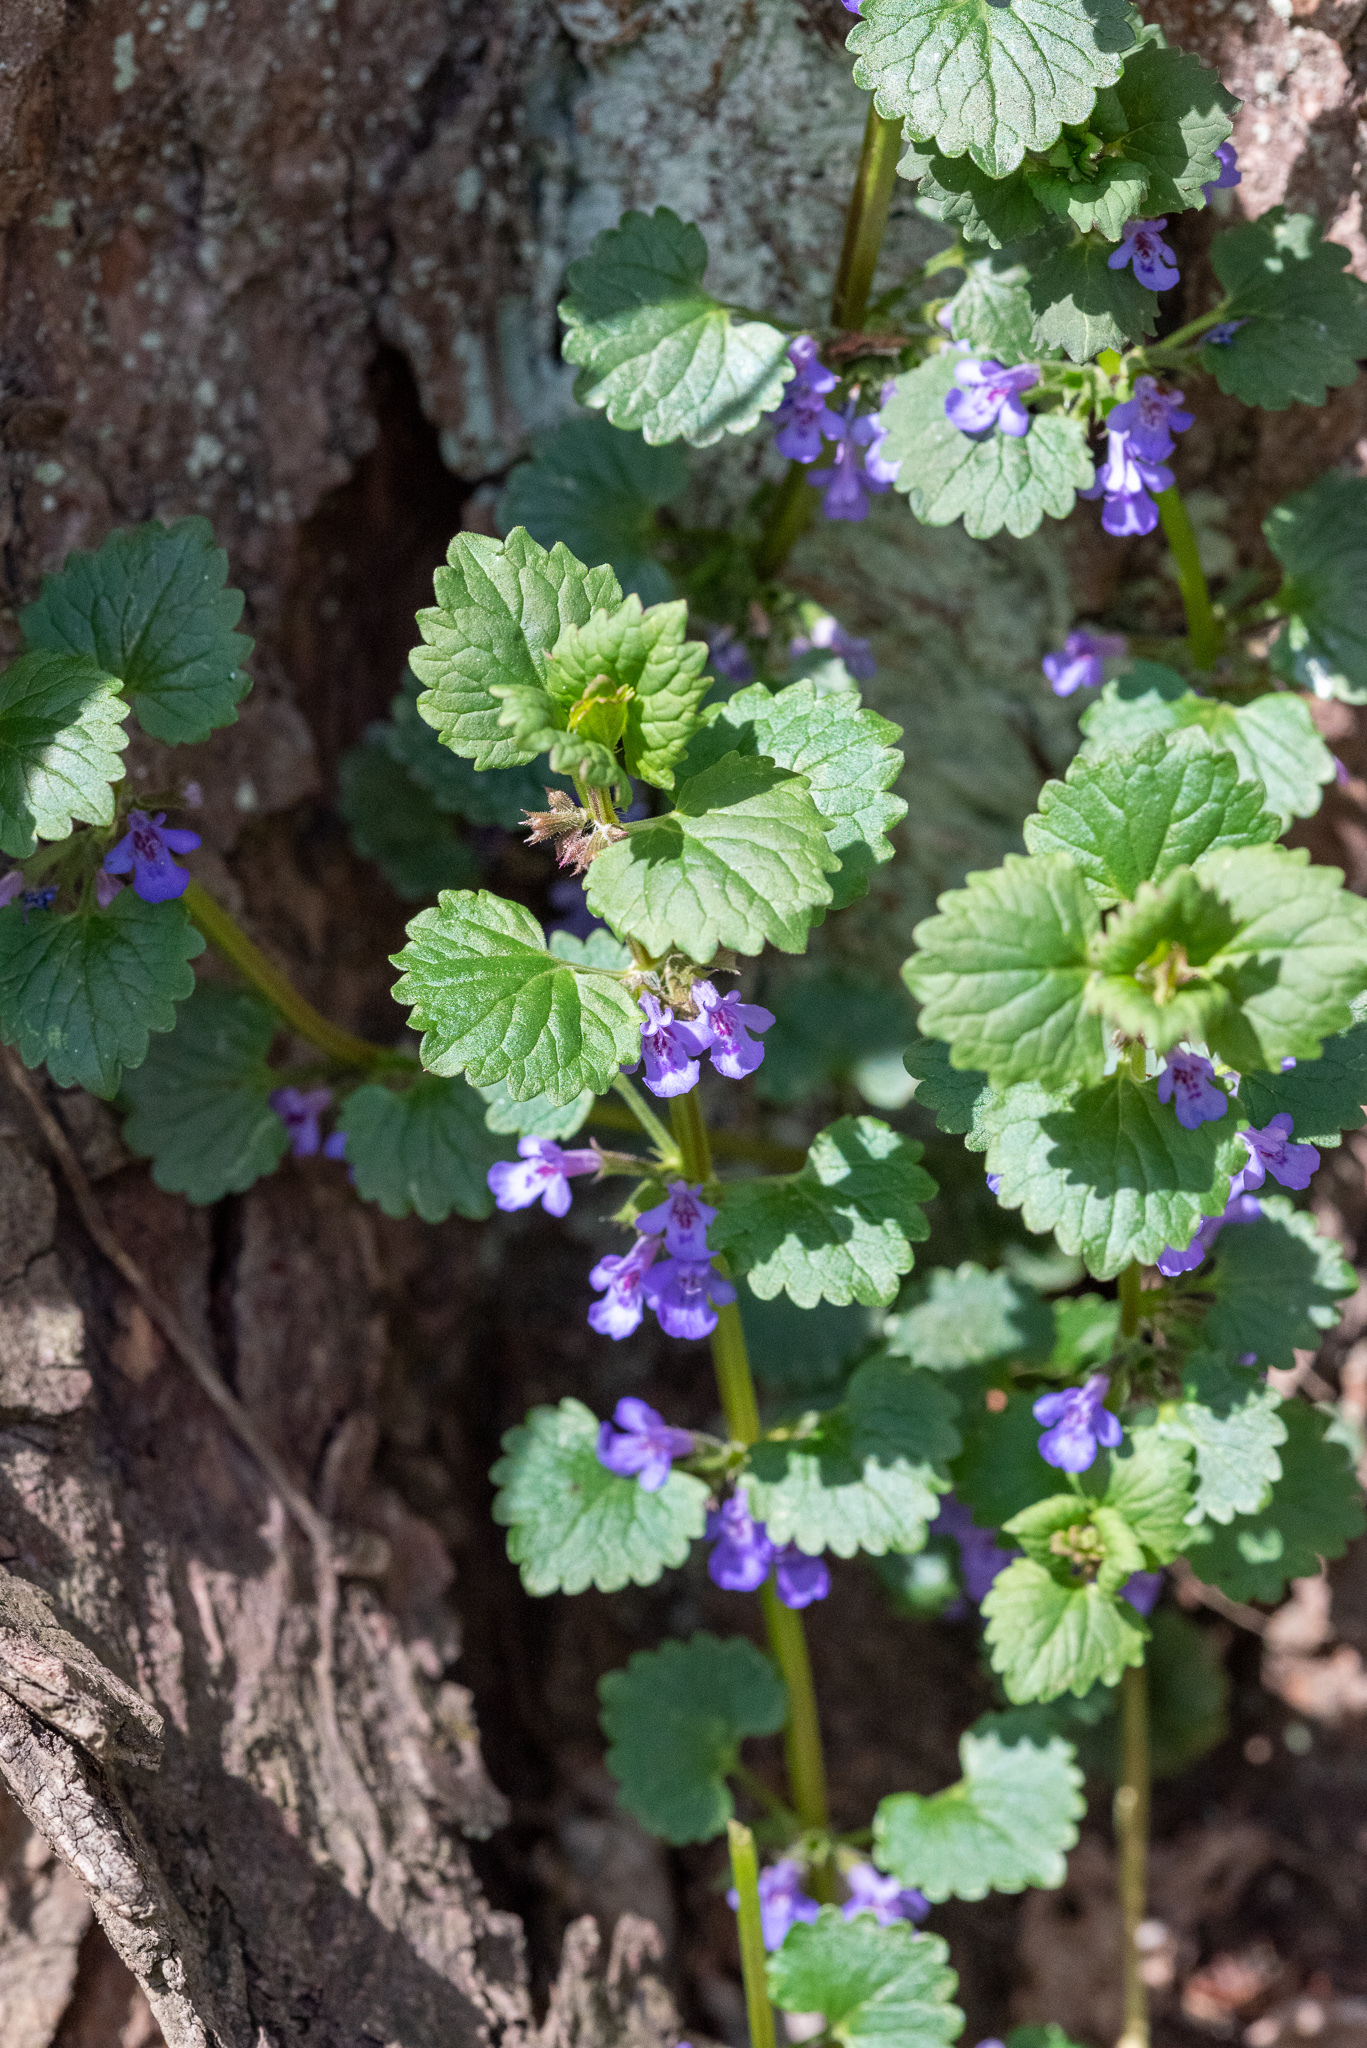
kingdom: Plantae
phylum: Tracheophyta
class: Magnoliopsida
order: Lamiales
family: Lamiaceae
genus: Glechoma
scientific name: Glechoma hederacea
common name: Ground ivy
